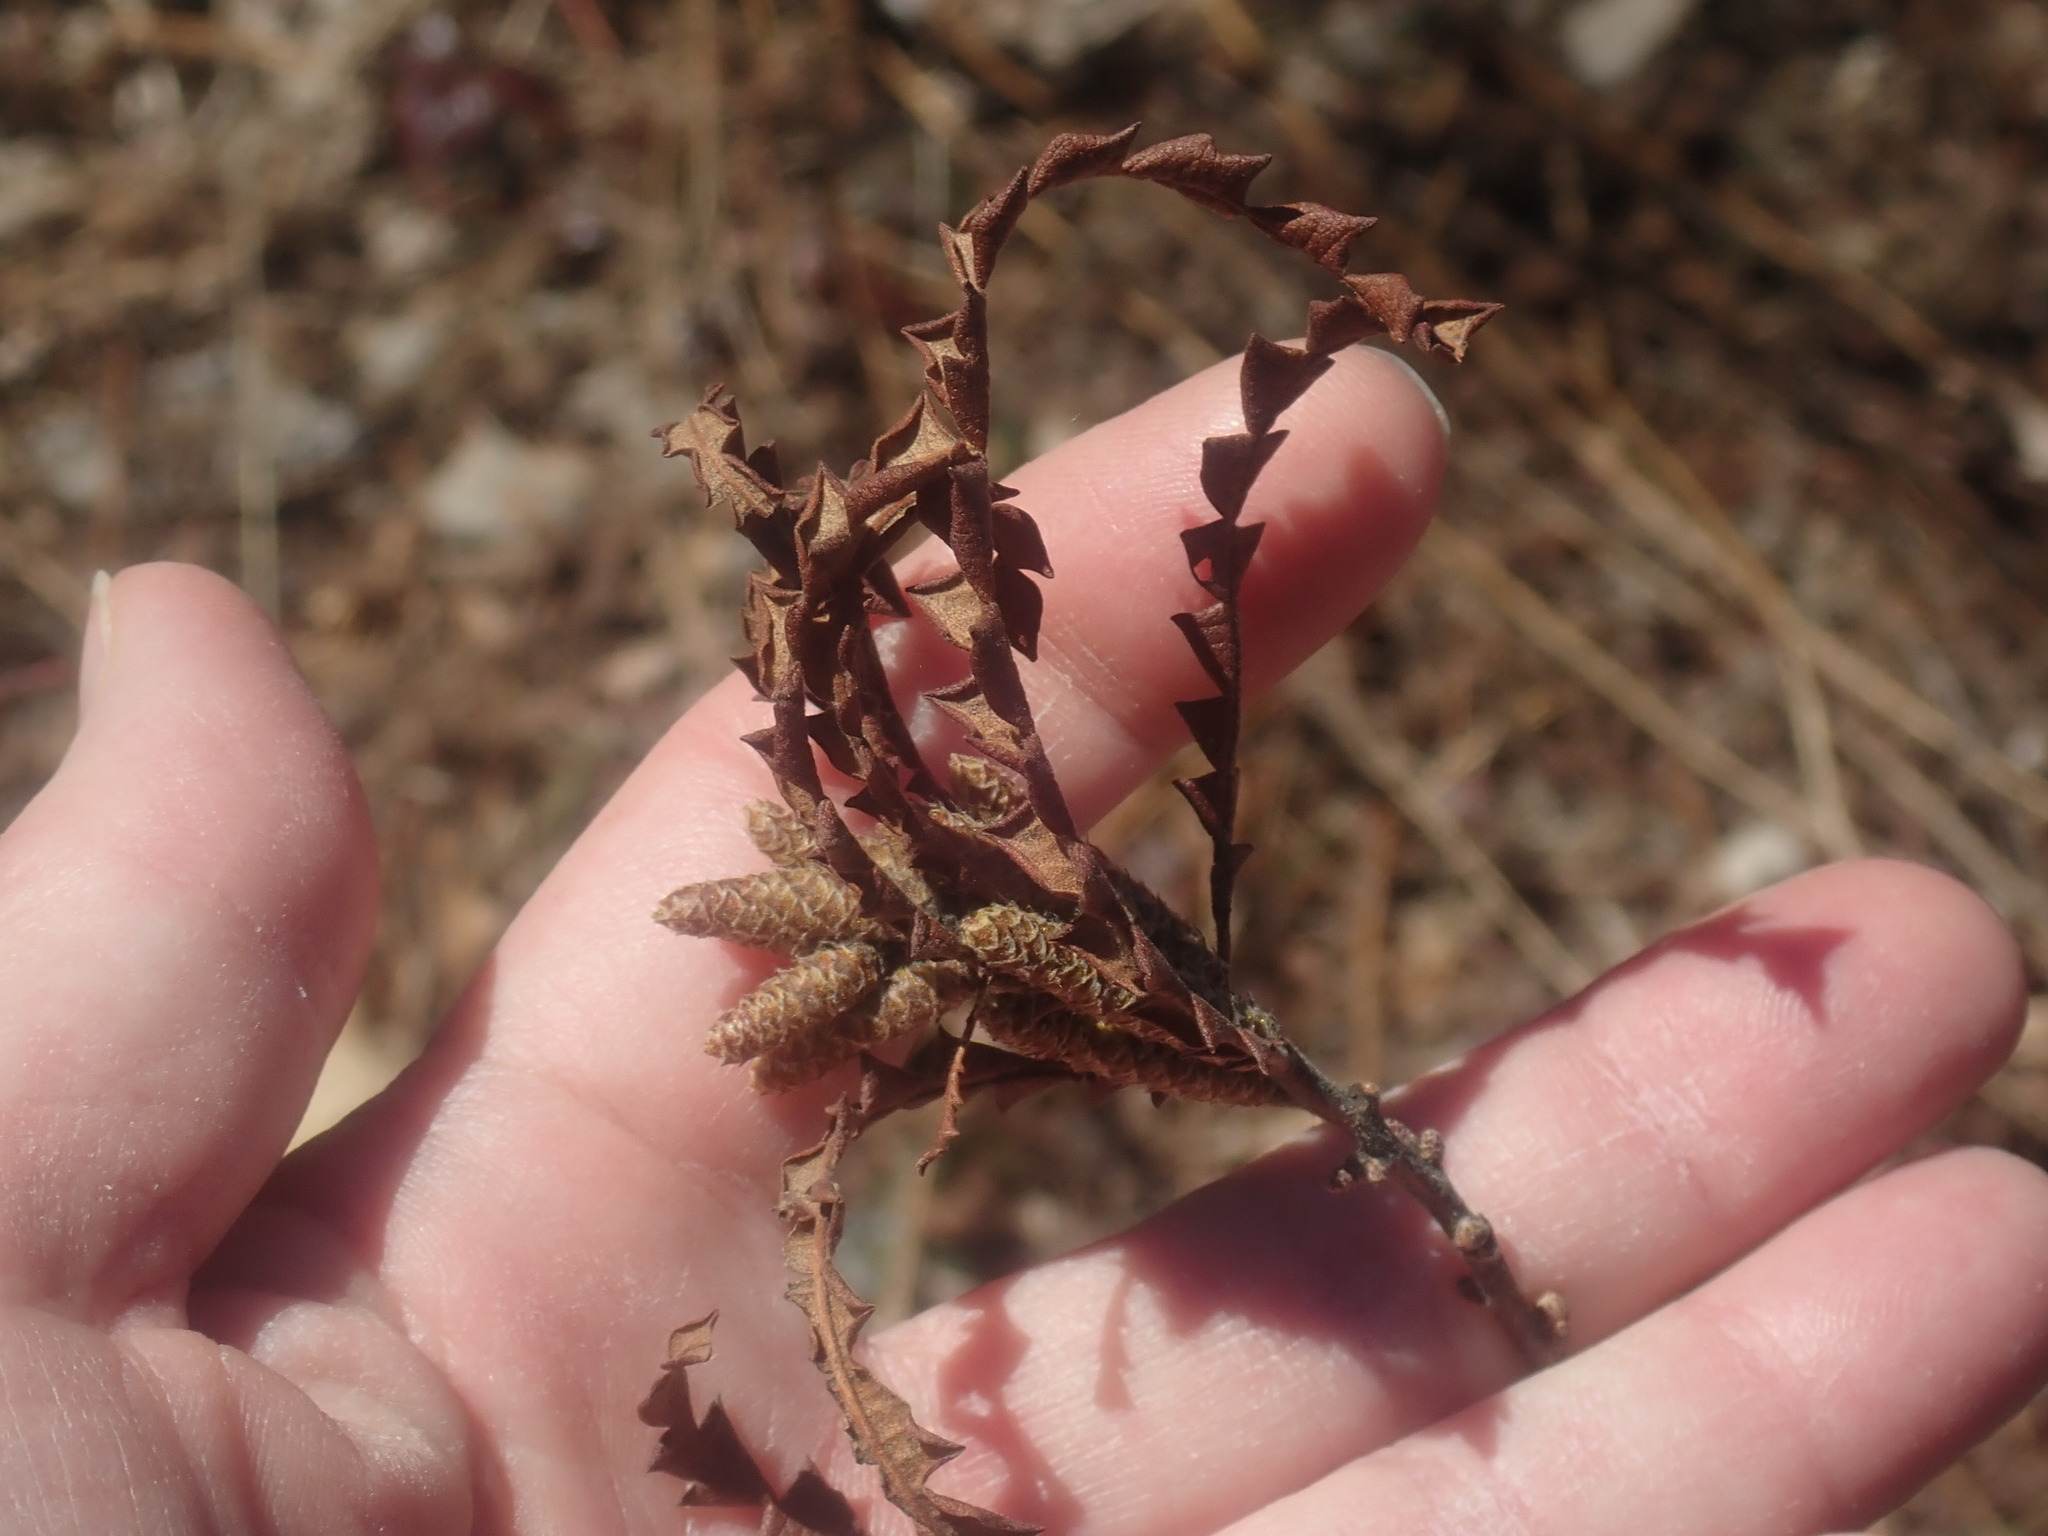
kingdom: Plantae
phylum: Tracheophyta
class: Magnoliopsida
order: Fagales
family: Myricaceae
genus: Comptonia
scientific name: Comptonia peregrina
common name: Sweet-fern
